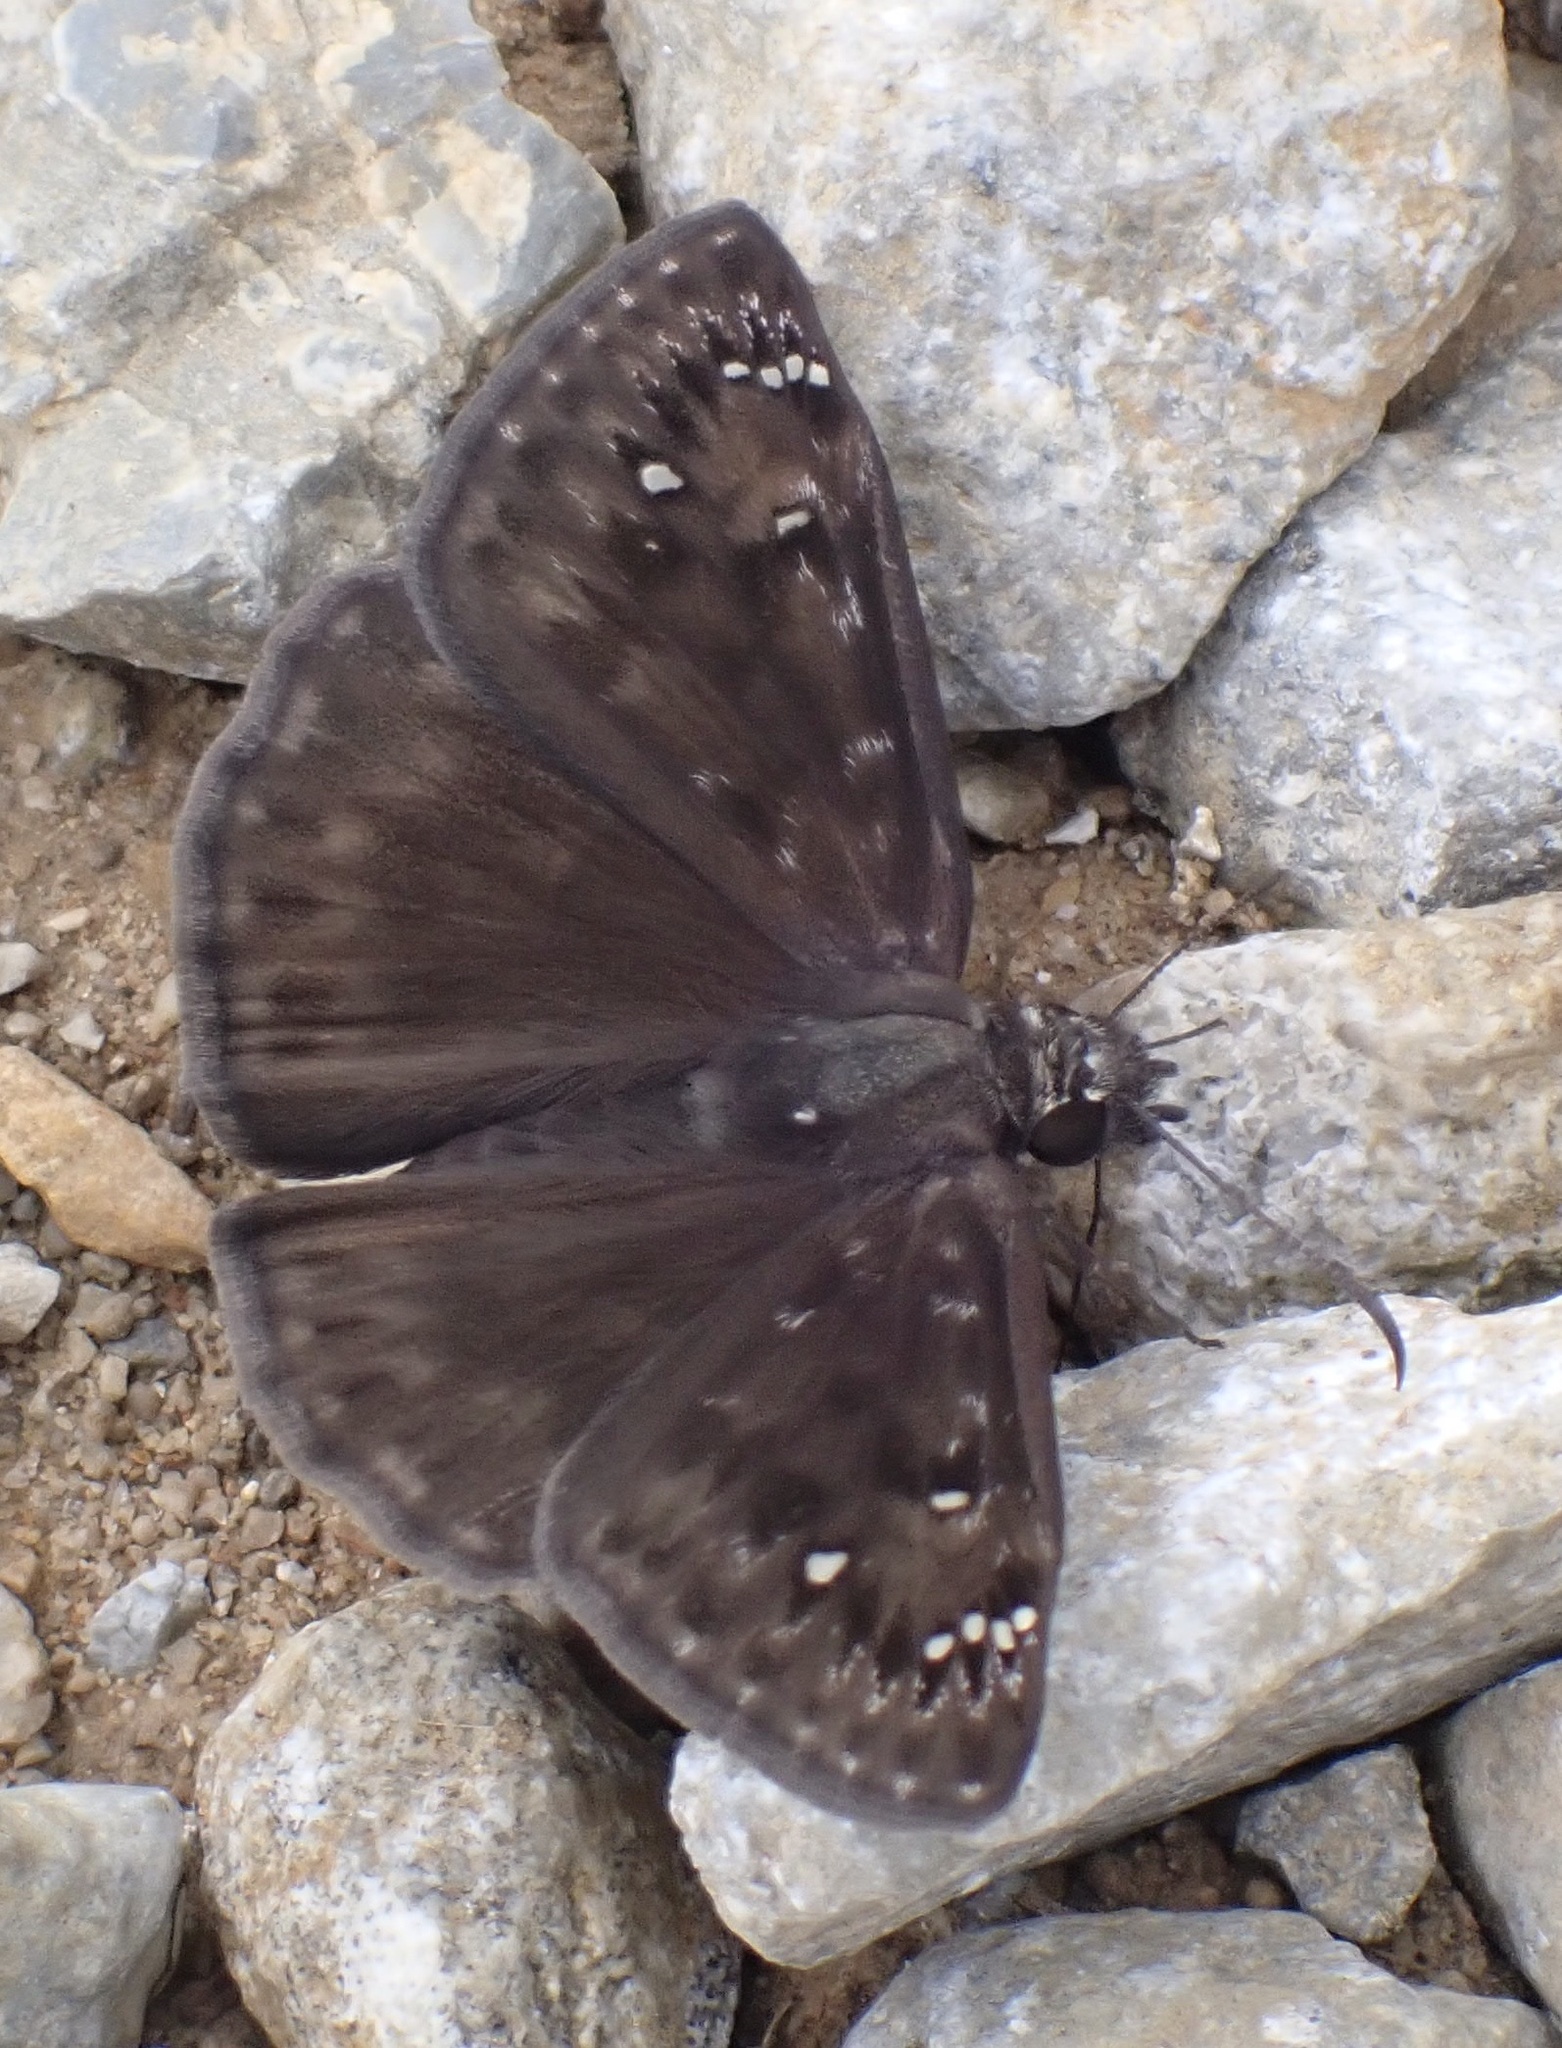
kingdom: Animalia
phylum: Arthropoda
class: Insecta
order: Lepidoptera
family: Hesperiidae
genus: Erynnis
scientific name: Erynnis horatius
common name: Horace's duskywing
